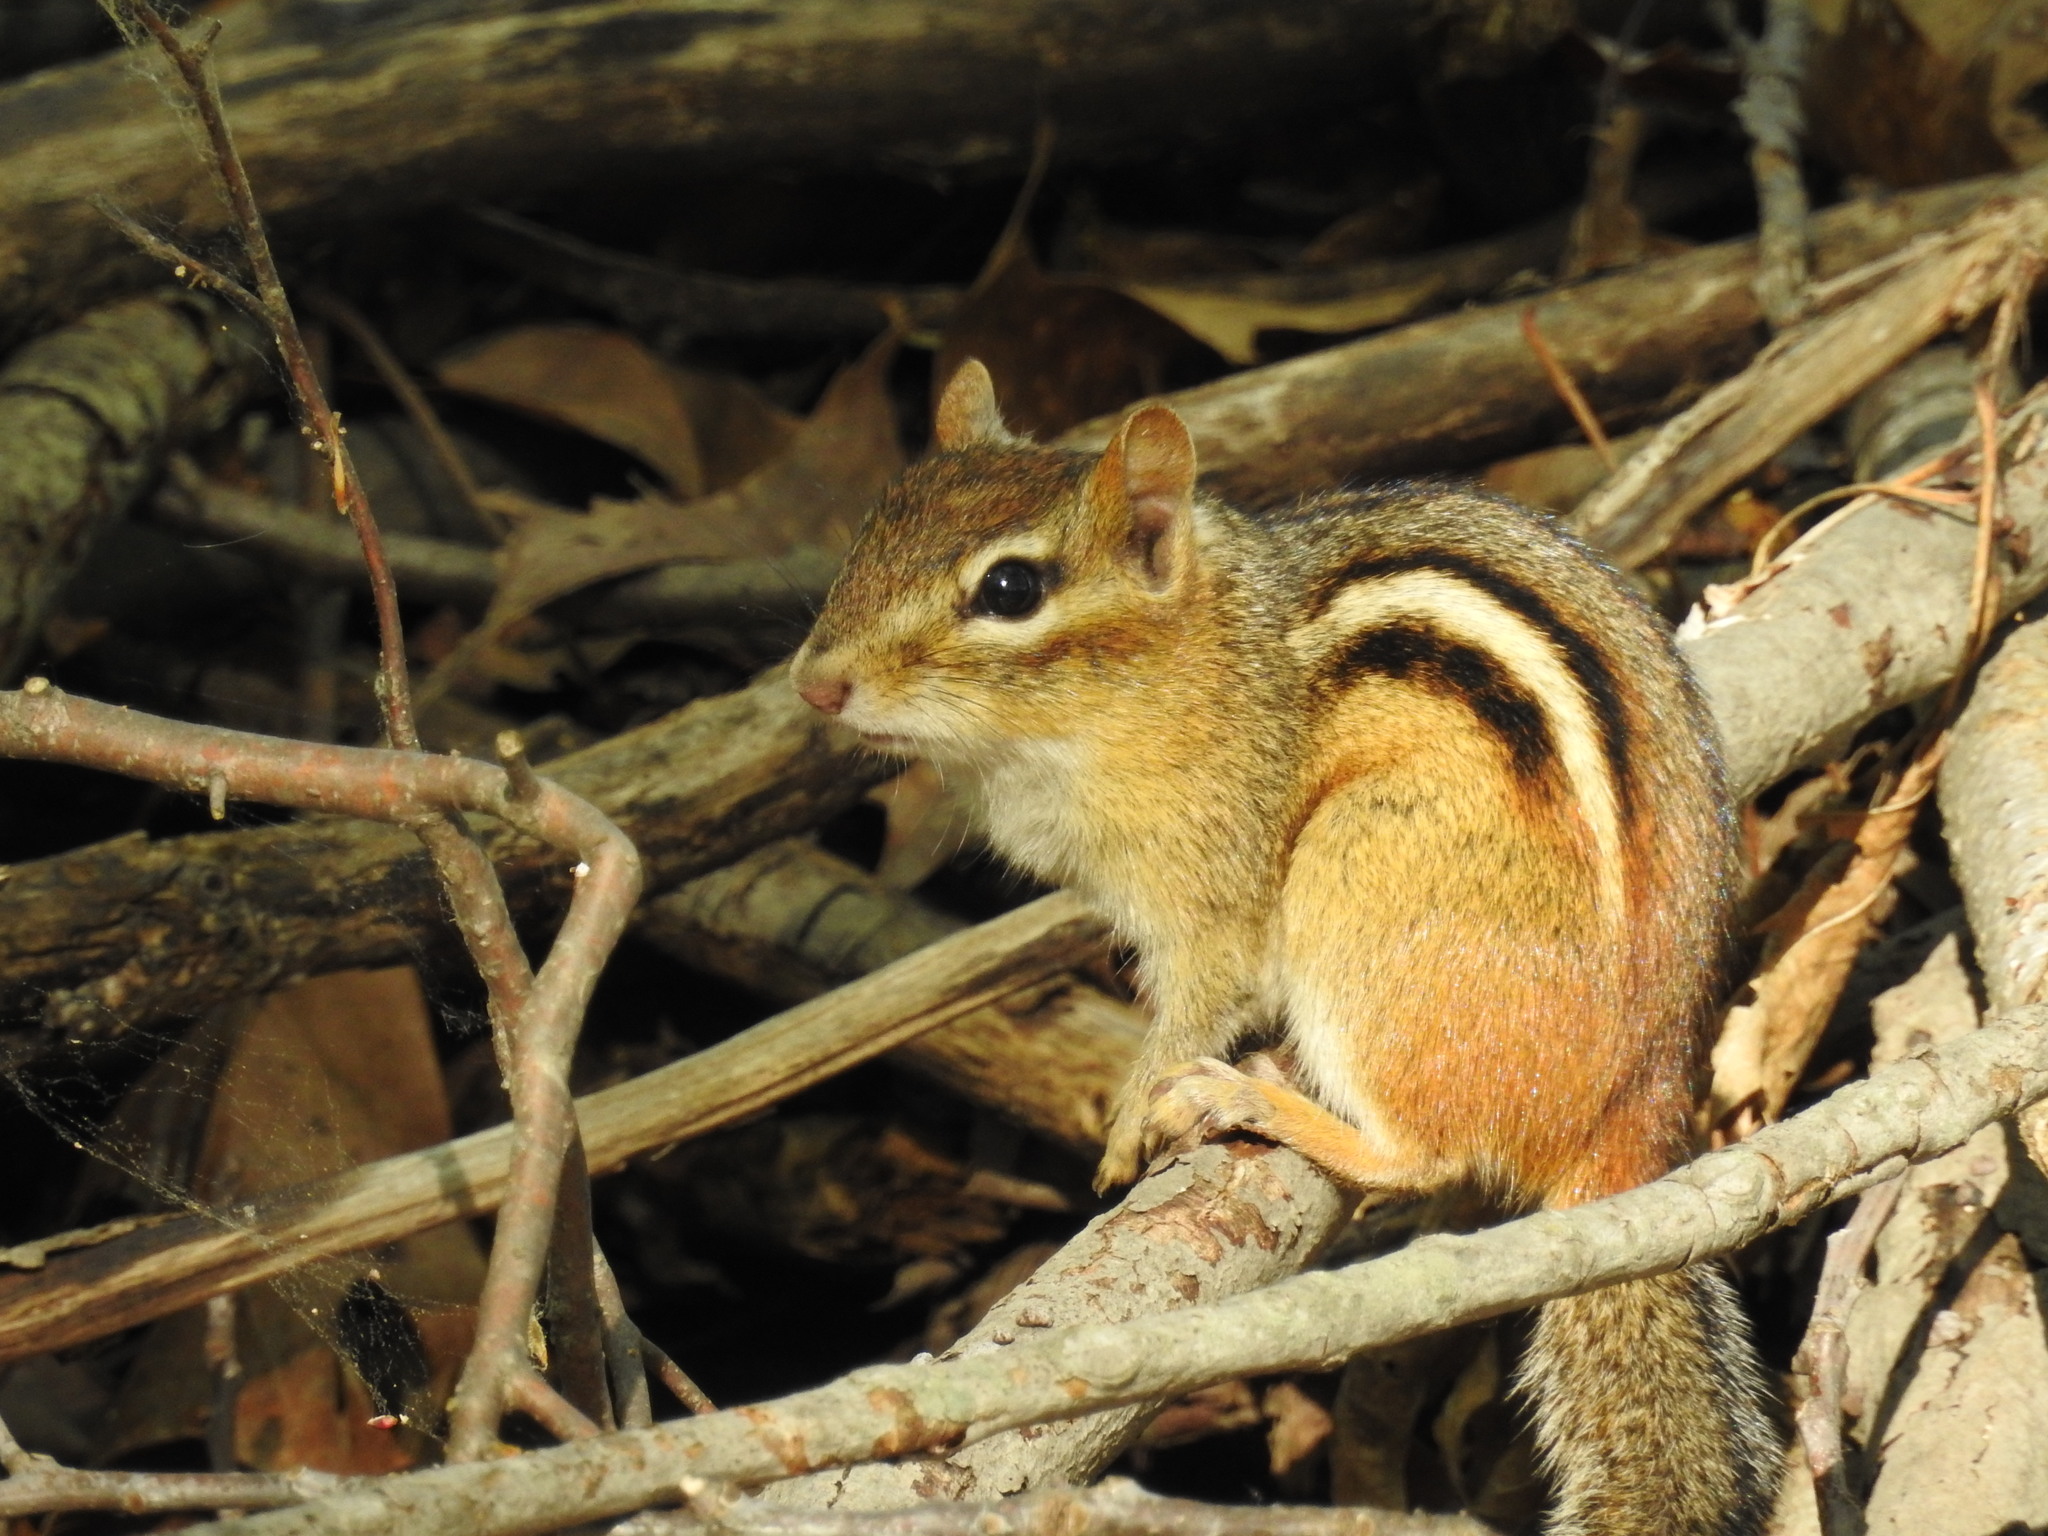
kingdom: Animalia
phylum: Chordata
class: Mammalia
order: Rodentia
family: Sciuridae
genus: Tamias
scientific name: Tamias striatus
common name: Eastern chipmunk
